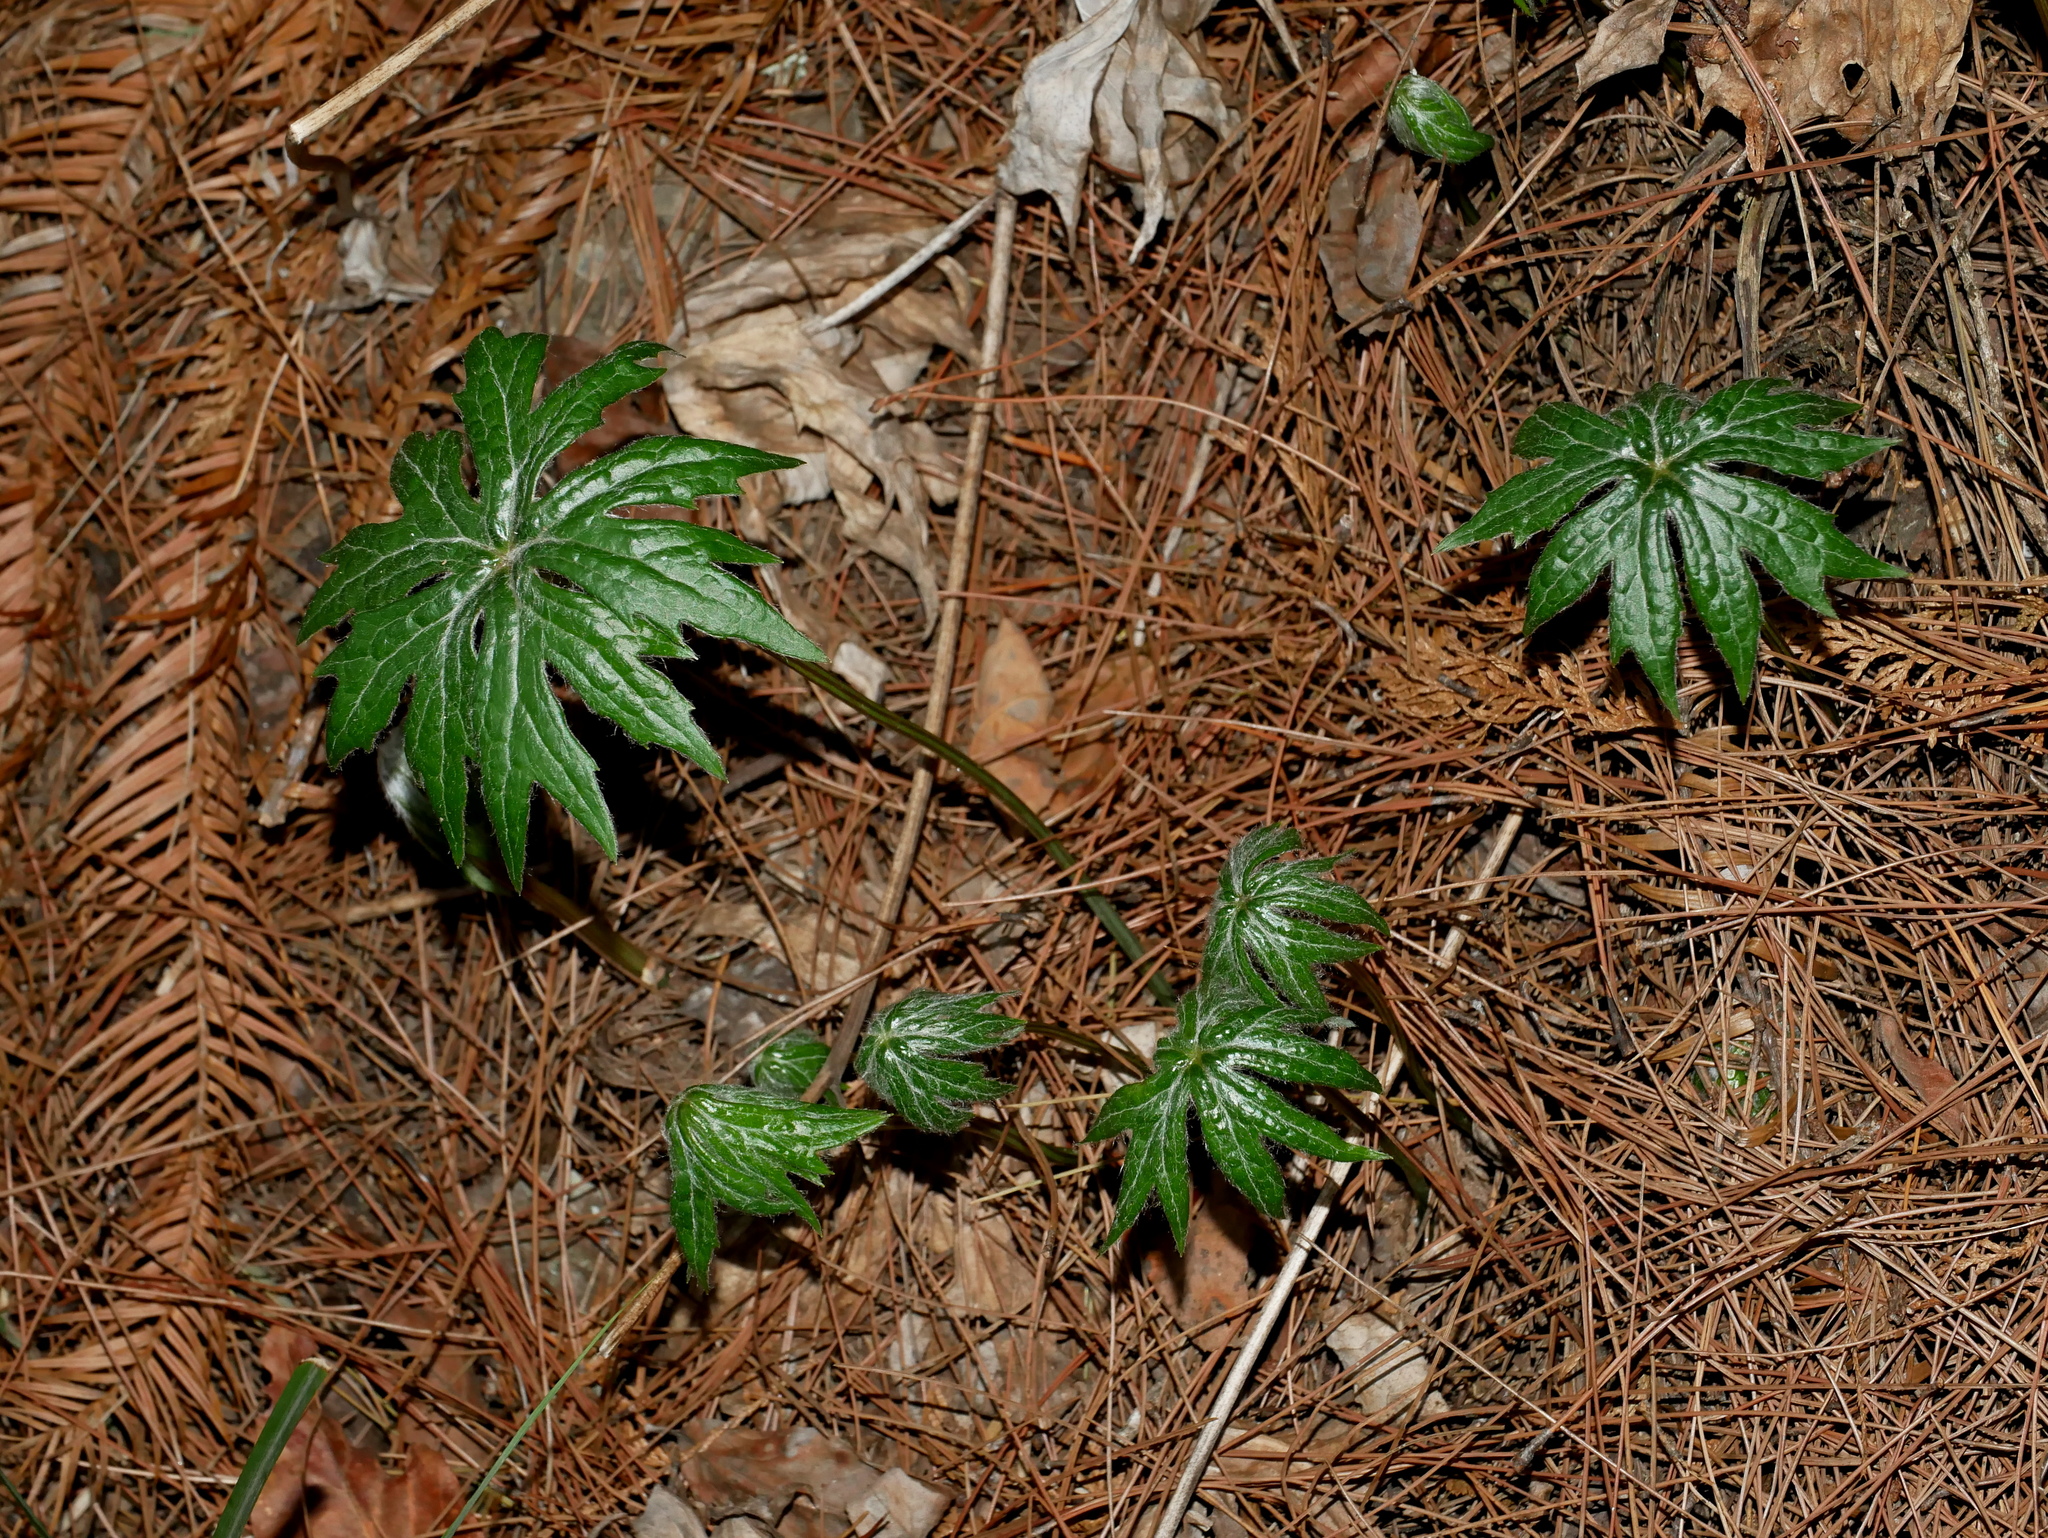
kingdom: Plantae
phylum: Tracheophyta
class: Magnoliopsida
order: Asterales
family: Asteraceae
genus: Syneilesis
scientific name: Syneilesis subglabrata
